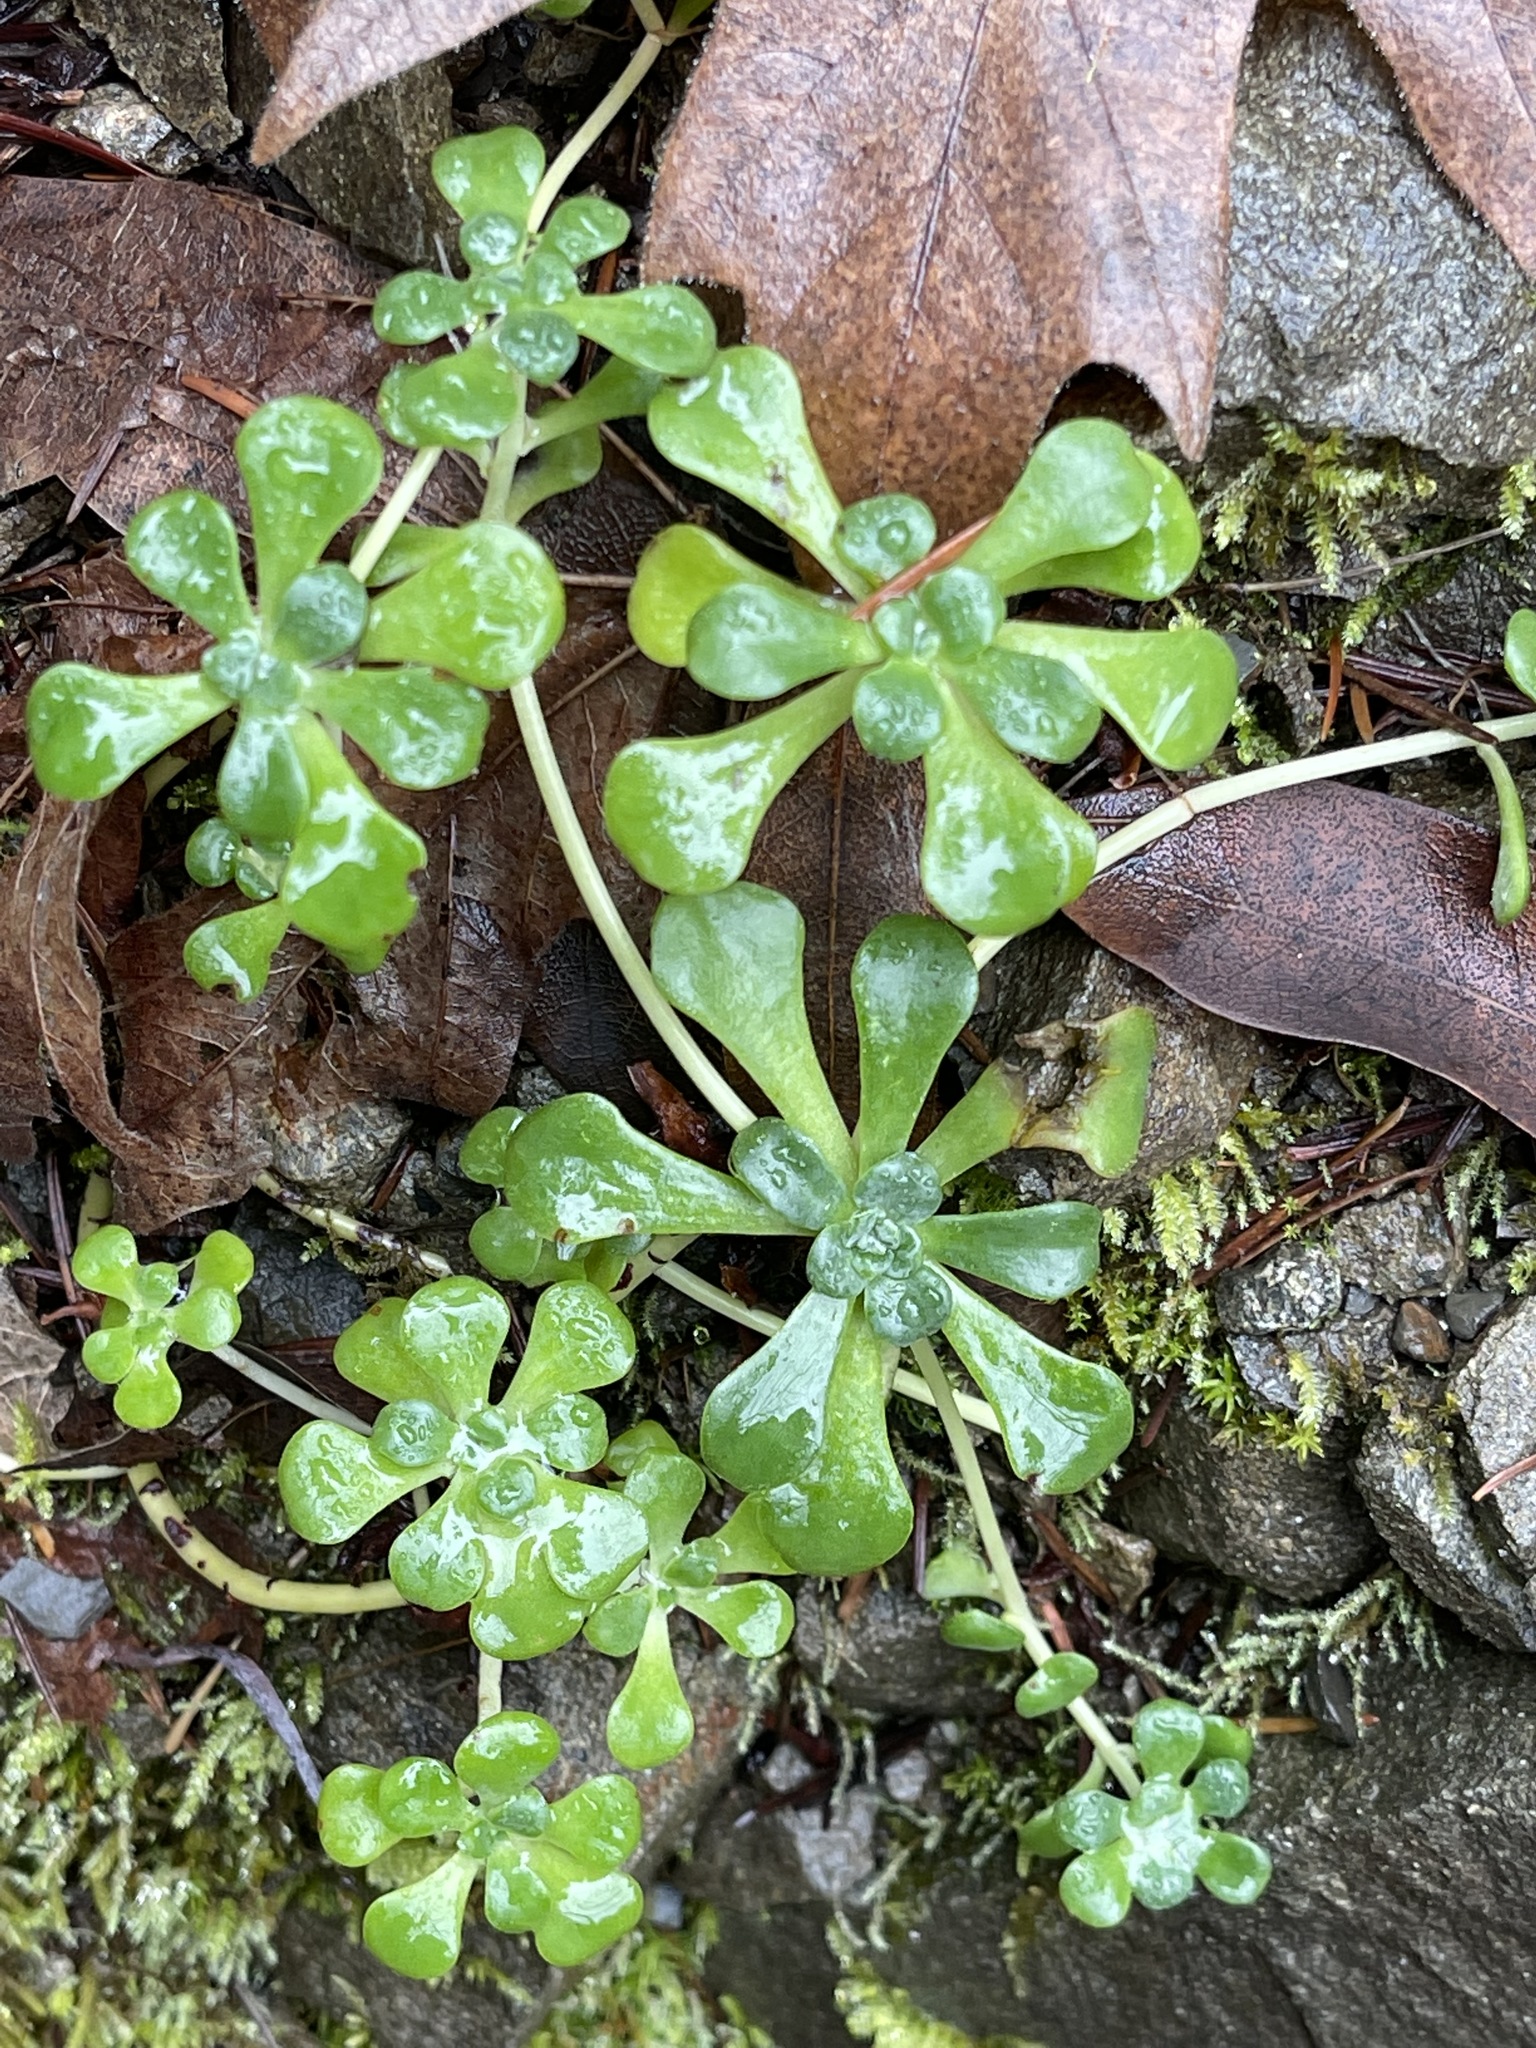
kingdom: Plantae
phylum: Tracheophyta
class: Magnoliopsida
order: Saxifragales
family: Crassulaceae
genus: Sedum
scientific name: Sedum spathulifolium
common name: Colorado stonecrop
